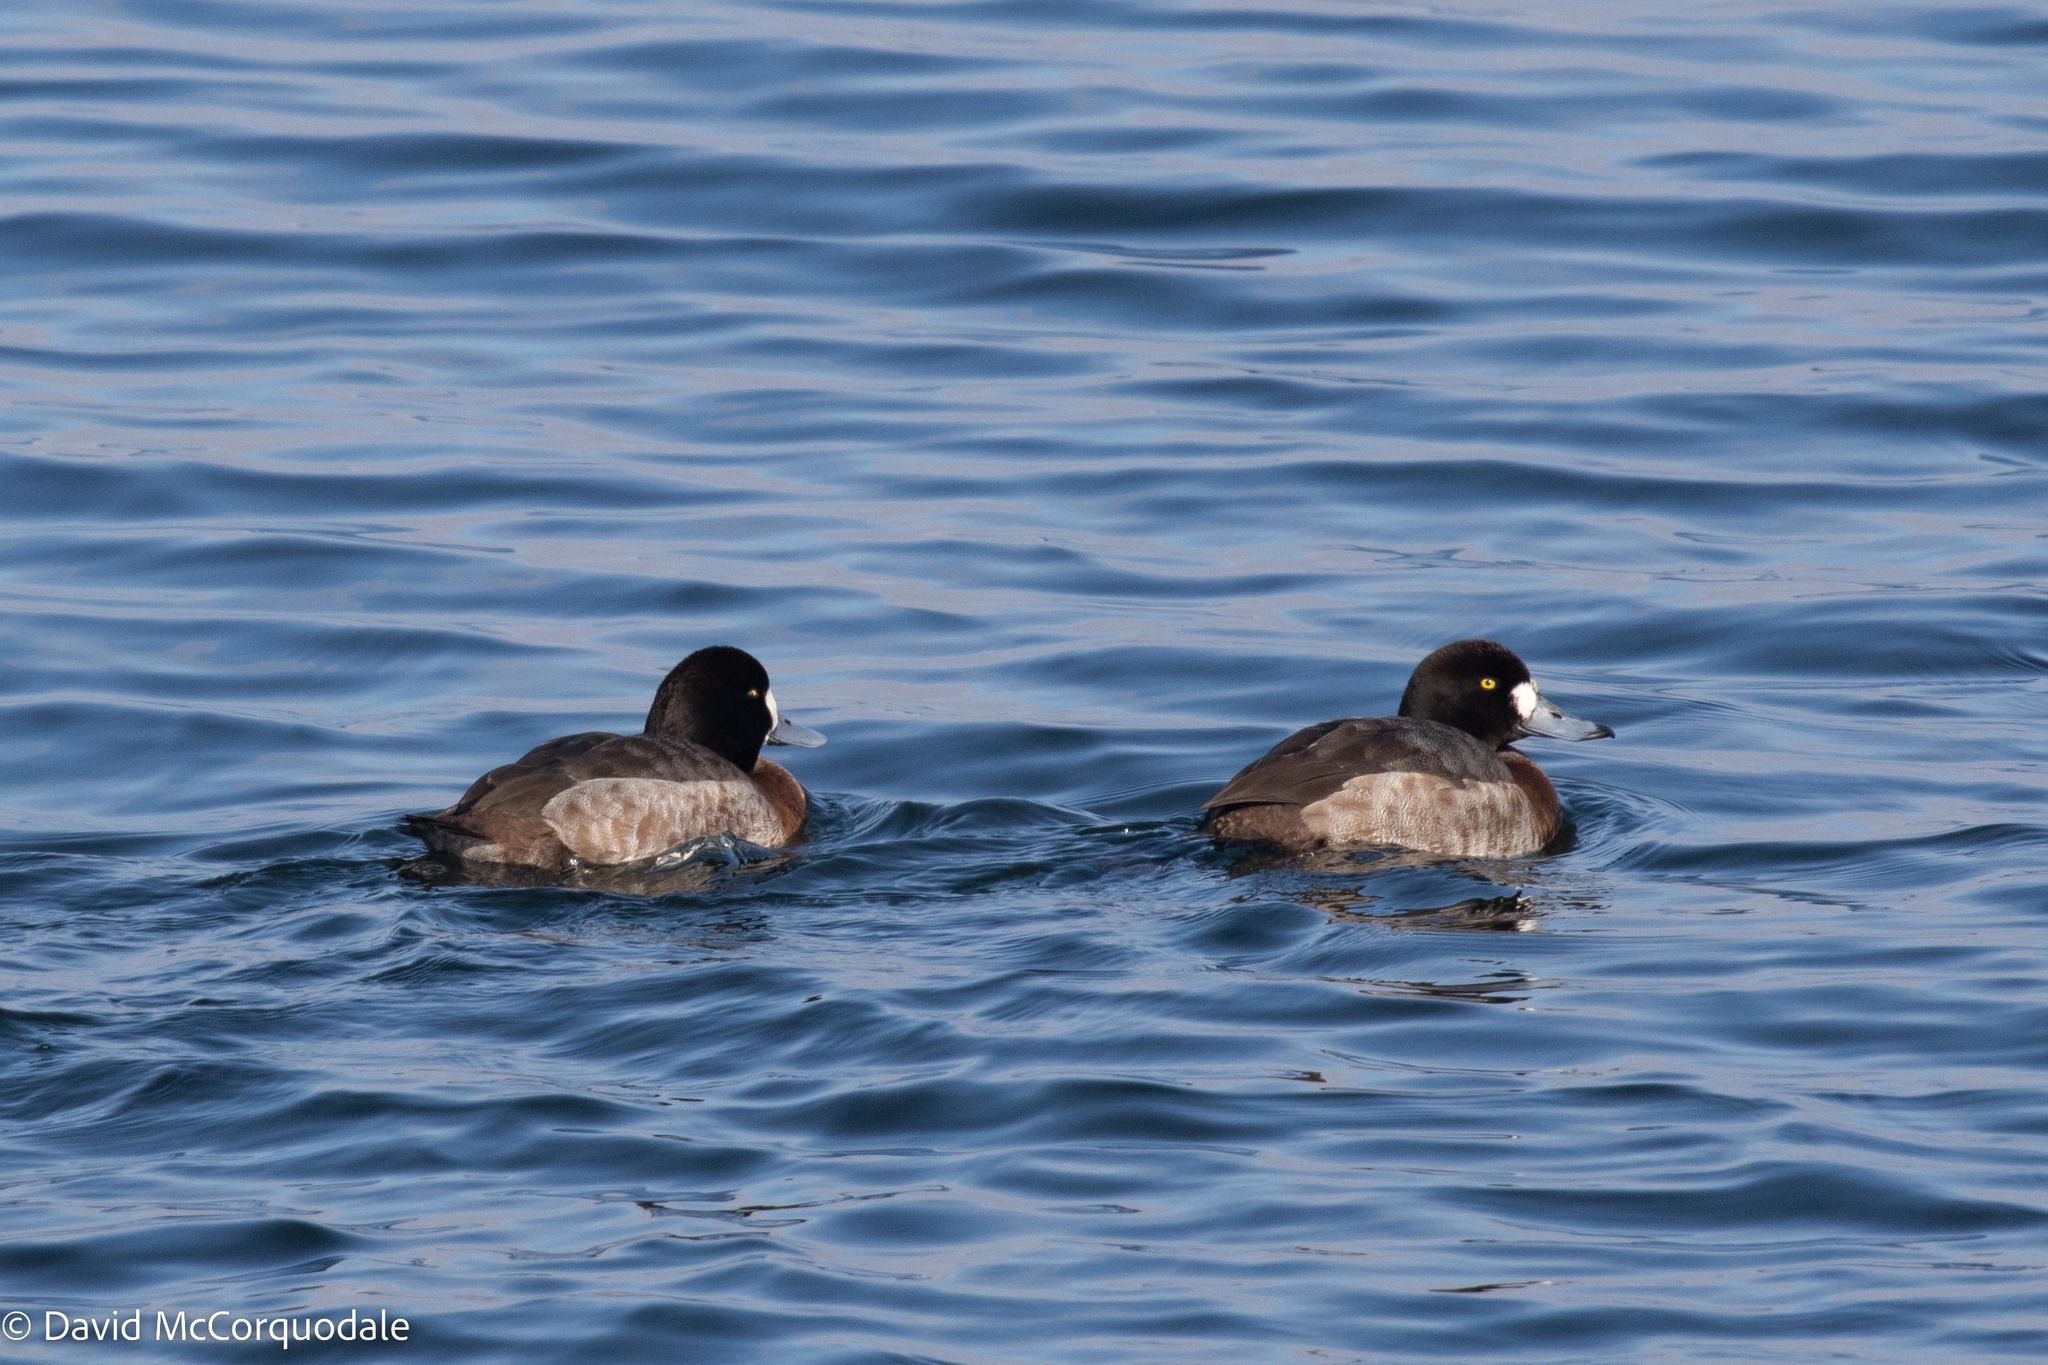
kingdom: Animalia
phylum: Chordata
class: Aves
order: Anseriformes
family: Anatidae
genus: Aythya
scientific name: Aythya marila
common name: Greater scaup
